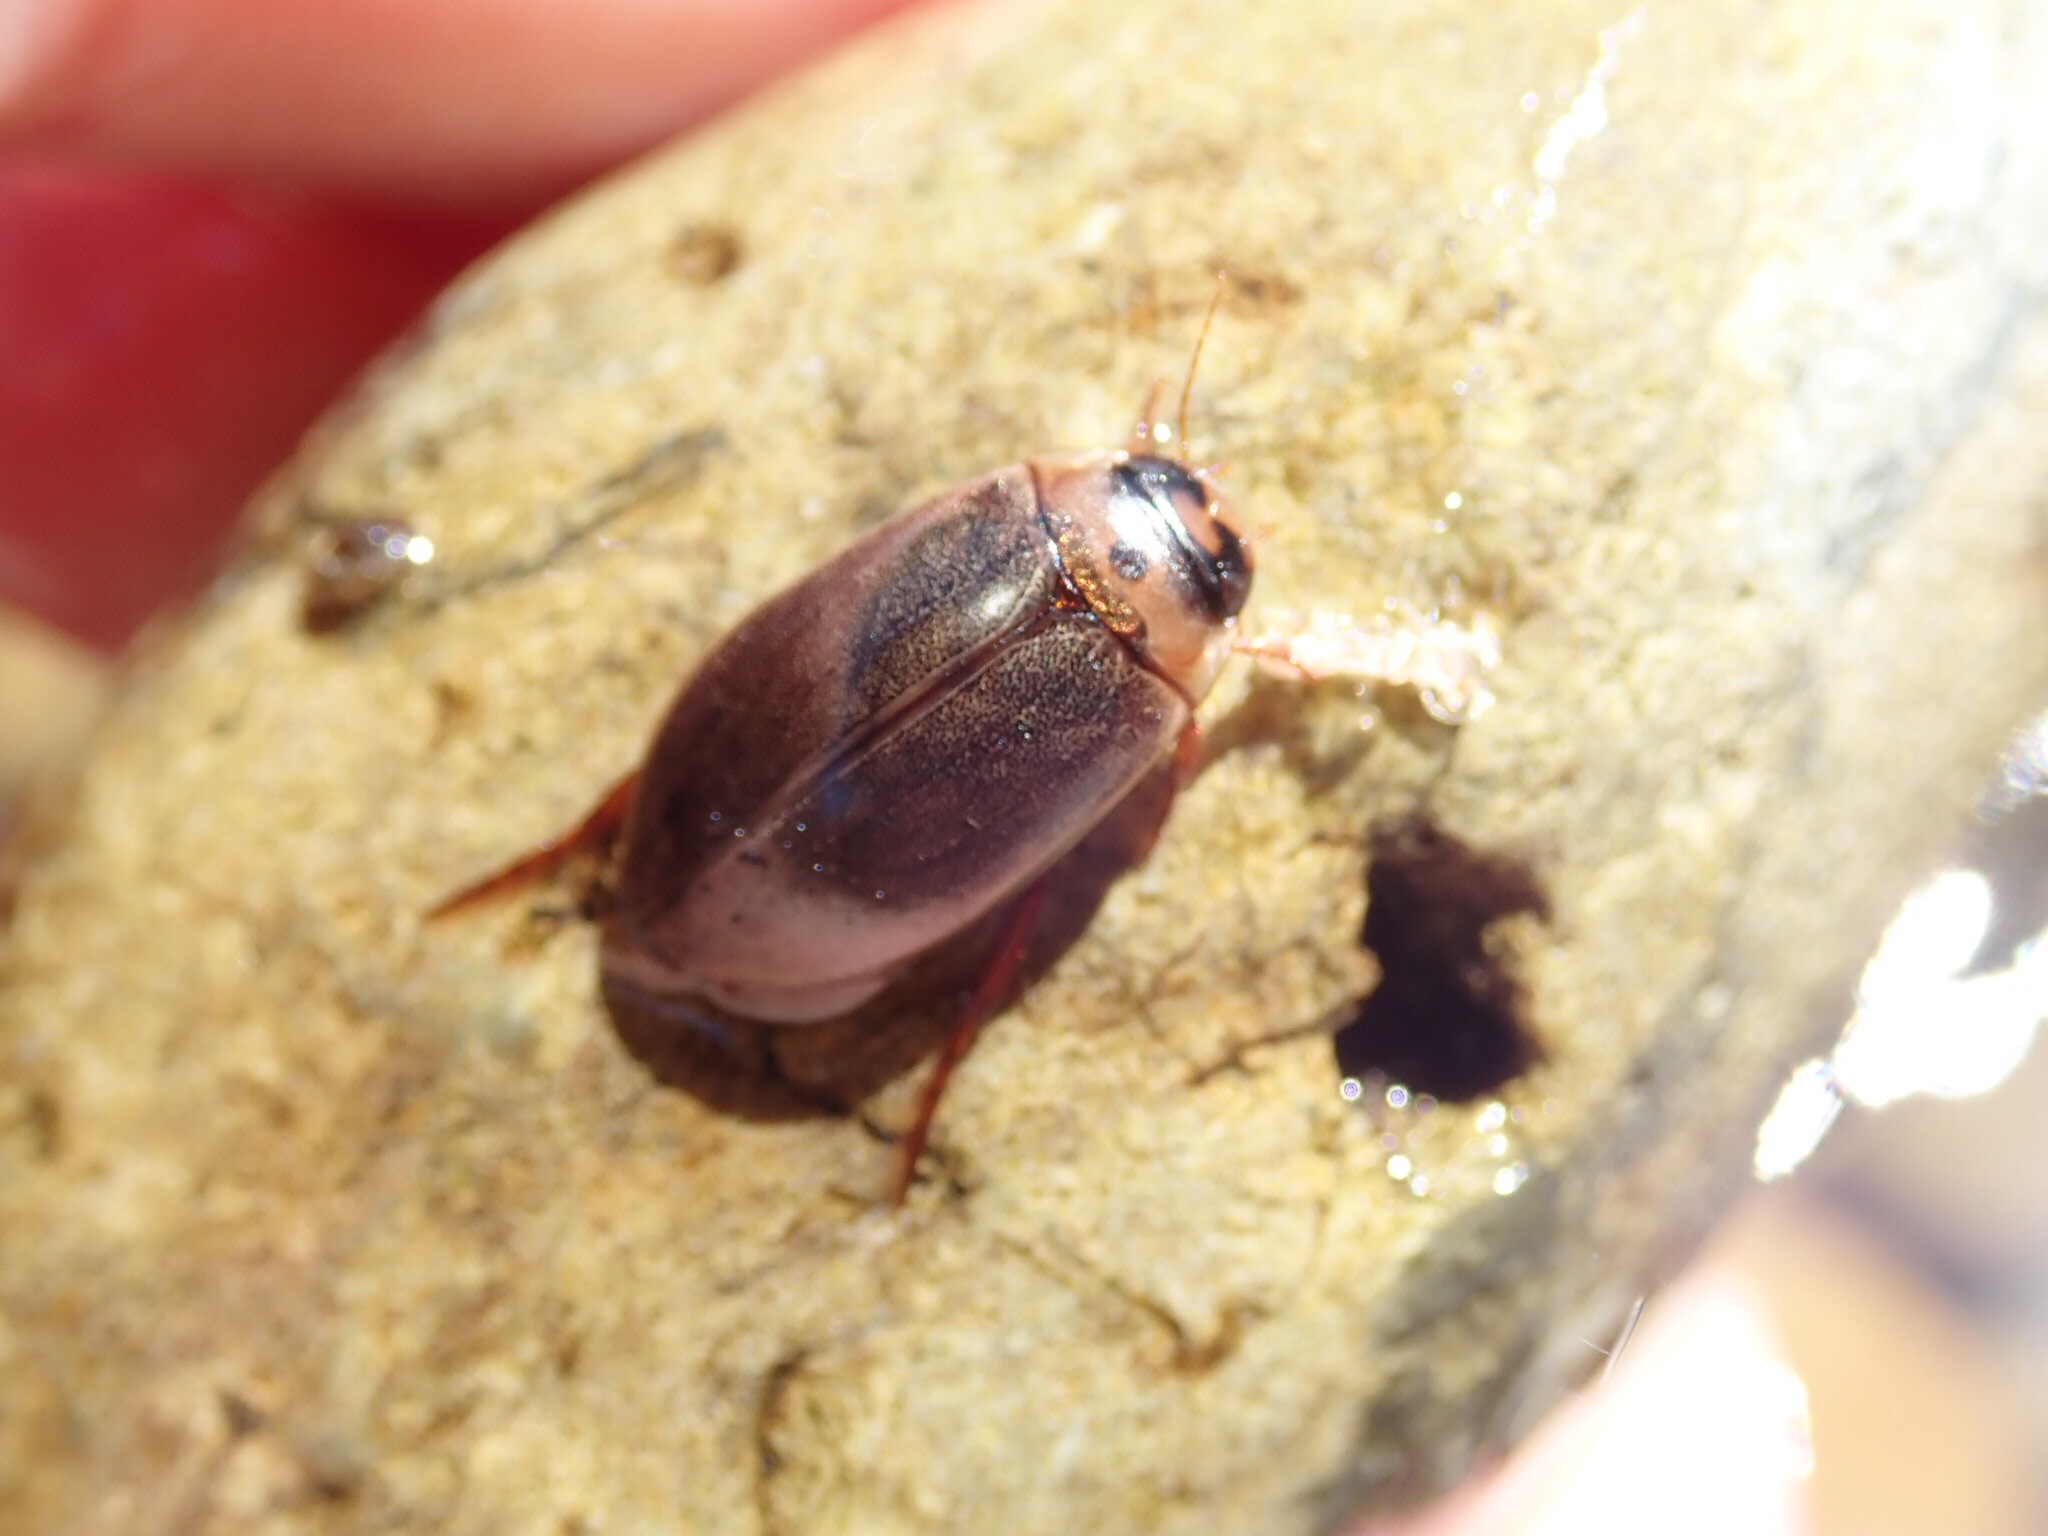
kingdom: Animalia
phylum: Arthropoda
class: Insecta
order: Coleoptera
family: Dytiscidae
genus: Rhantus
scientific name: Rhantus suturalis
